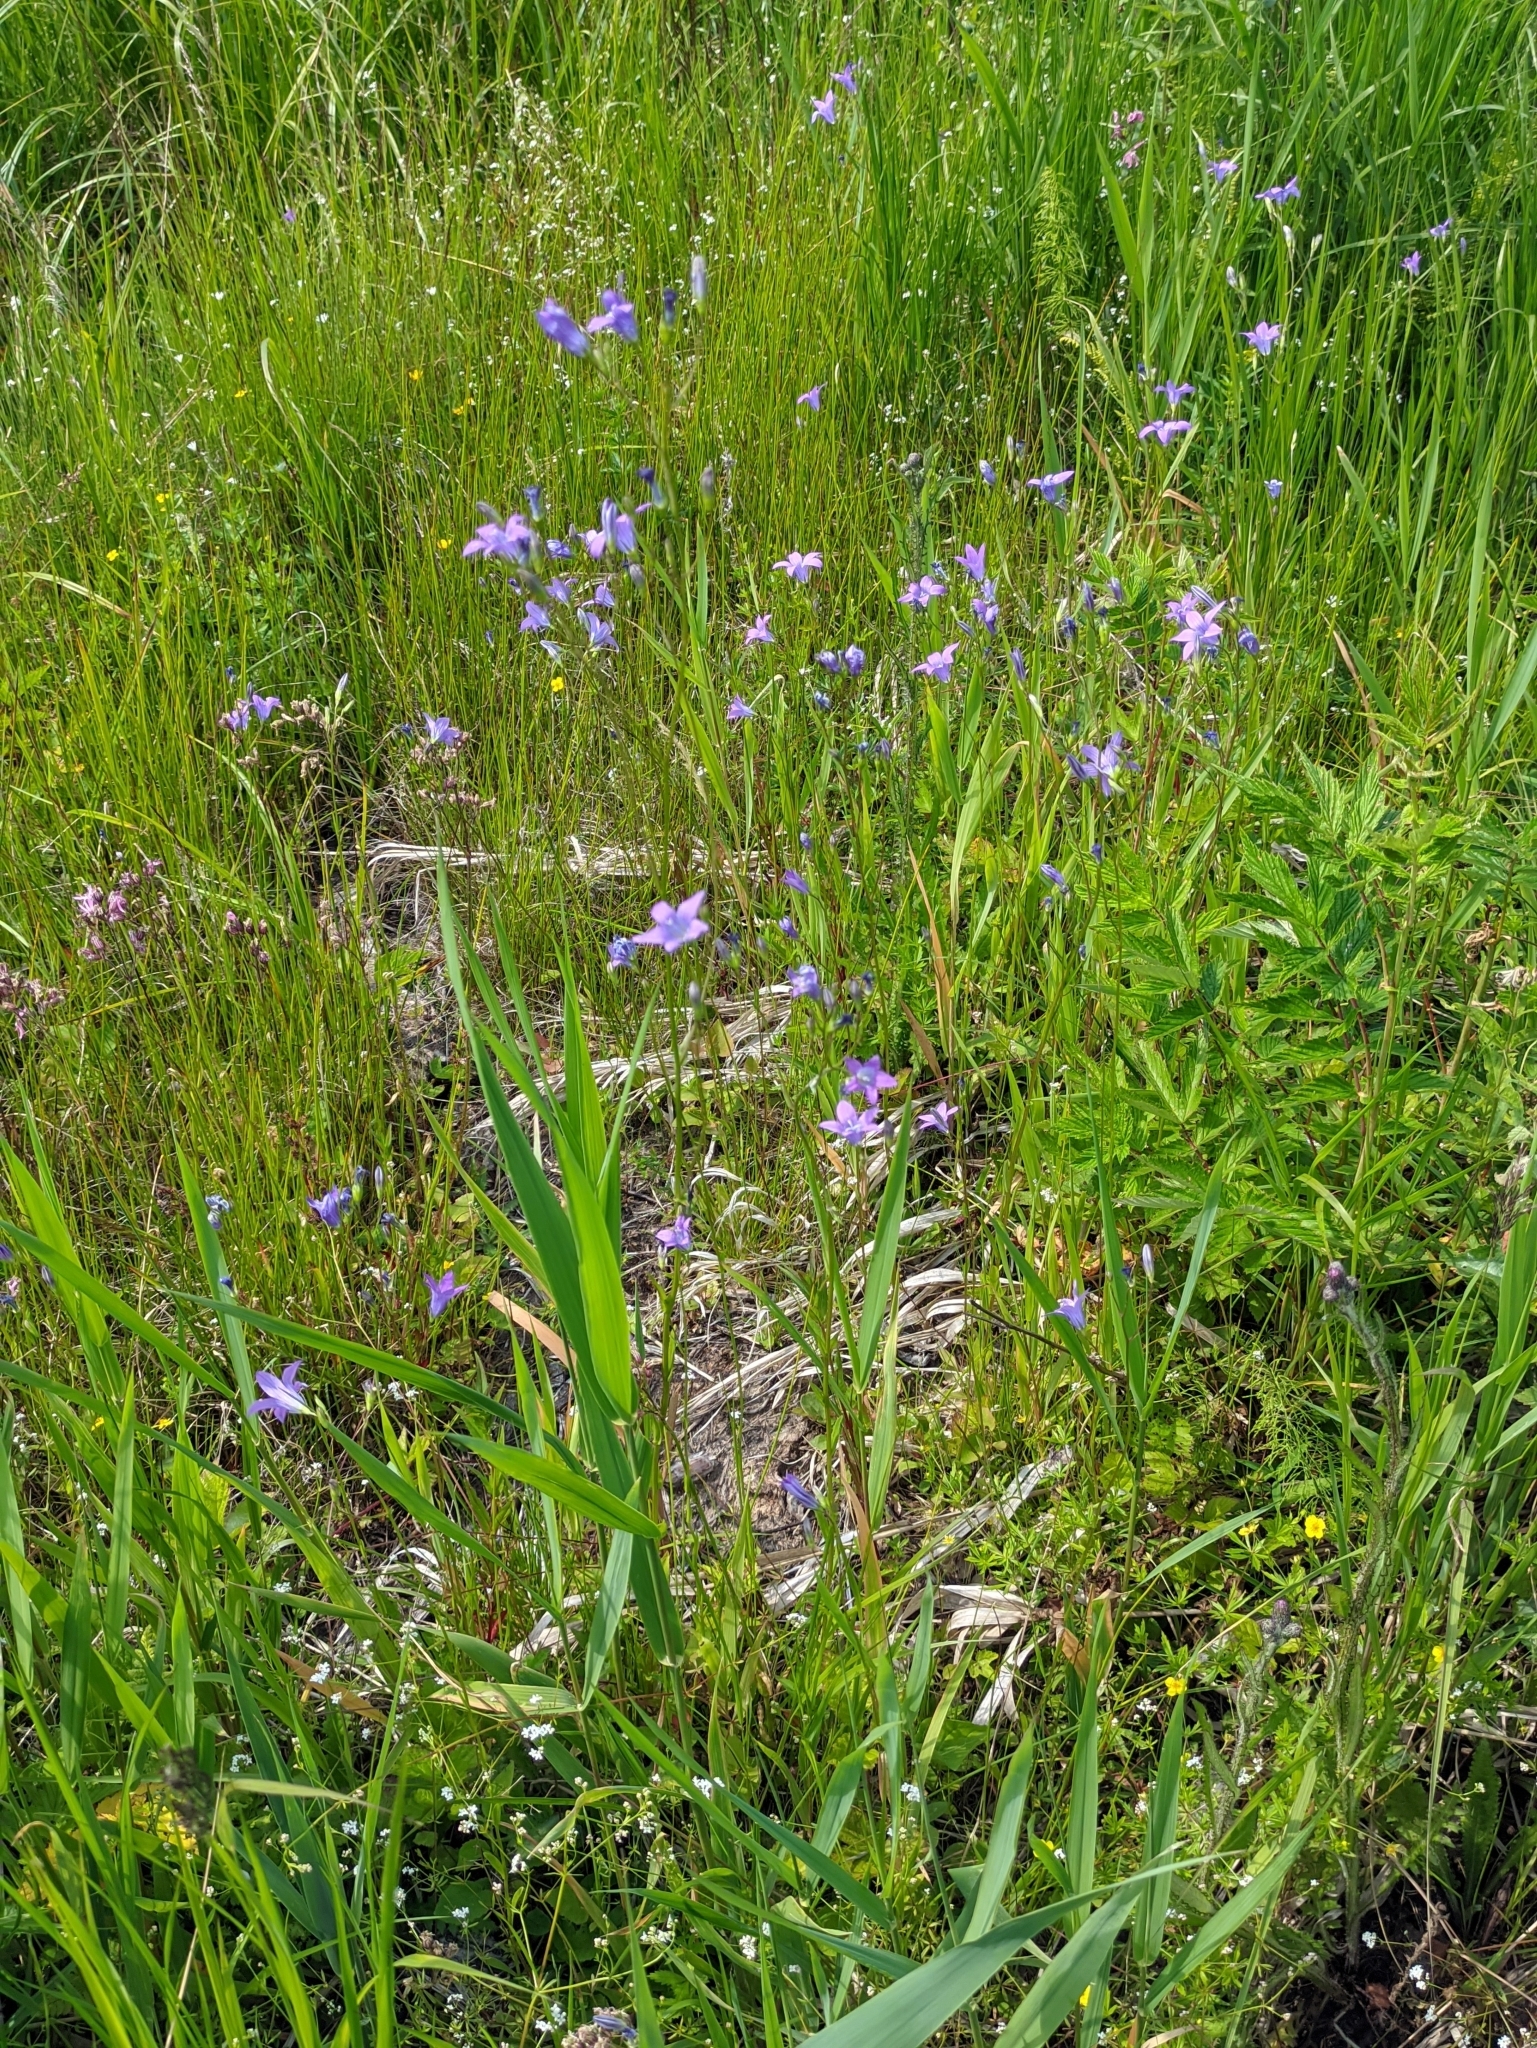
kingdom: Plantae
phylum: Tracheophyta
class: Magnoliopsida
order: Asterales
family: Campanulaceae
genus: Campanula
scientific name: Campanula patula
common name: Spreading bellflower
